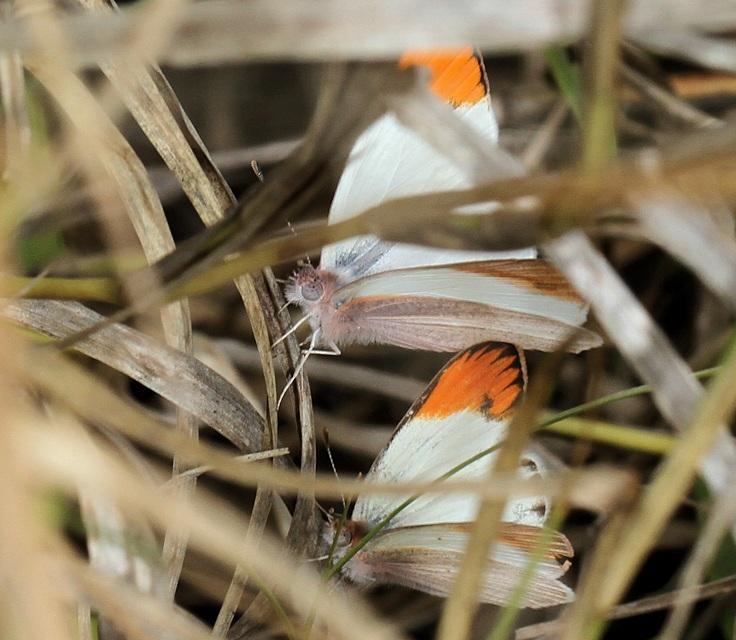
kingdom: Animalia
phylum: Arthropoda
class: Insecta
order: Lepidoptera
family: Pieridae
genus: Colotis
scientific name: Colotis evenina
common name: Common orange tip
